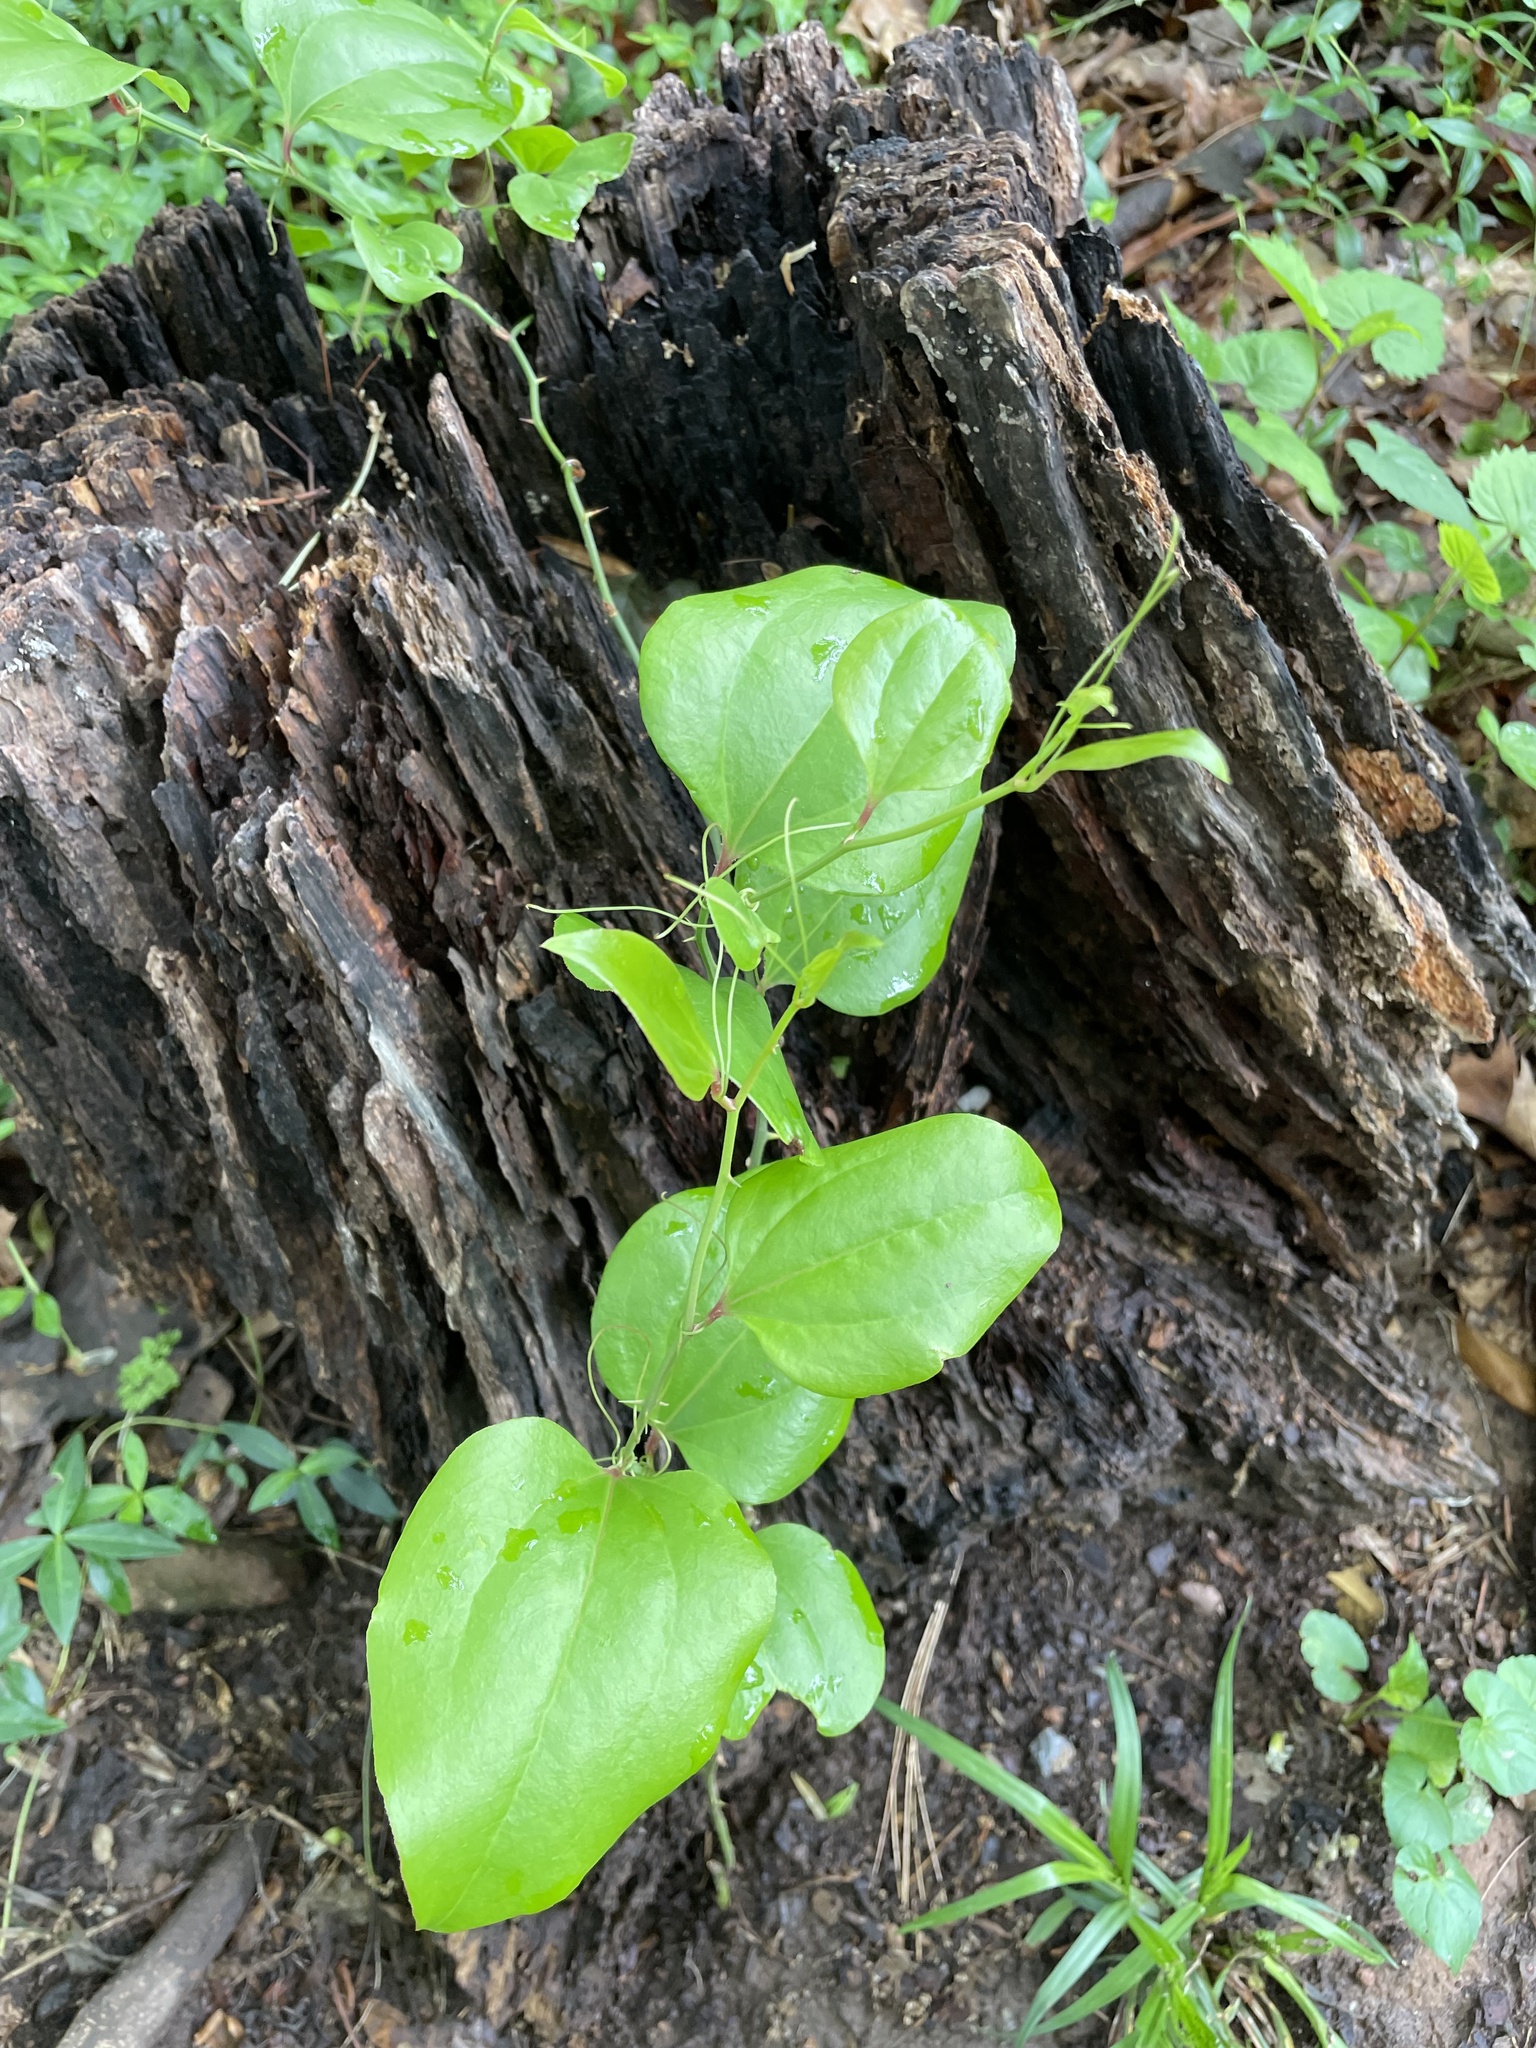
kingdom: Plantae
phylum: Tracheophyta
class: Liliopsida
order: Liliales
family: Smilacaceae
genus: Smilax
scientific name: Smilax rotundifolia
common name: Bullbriar
